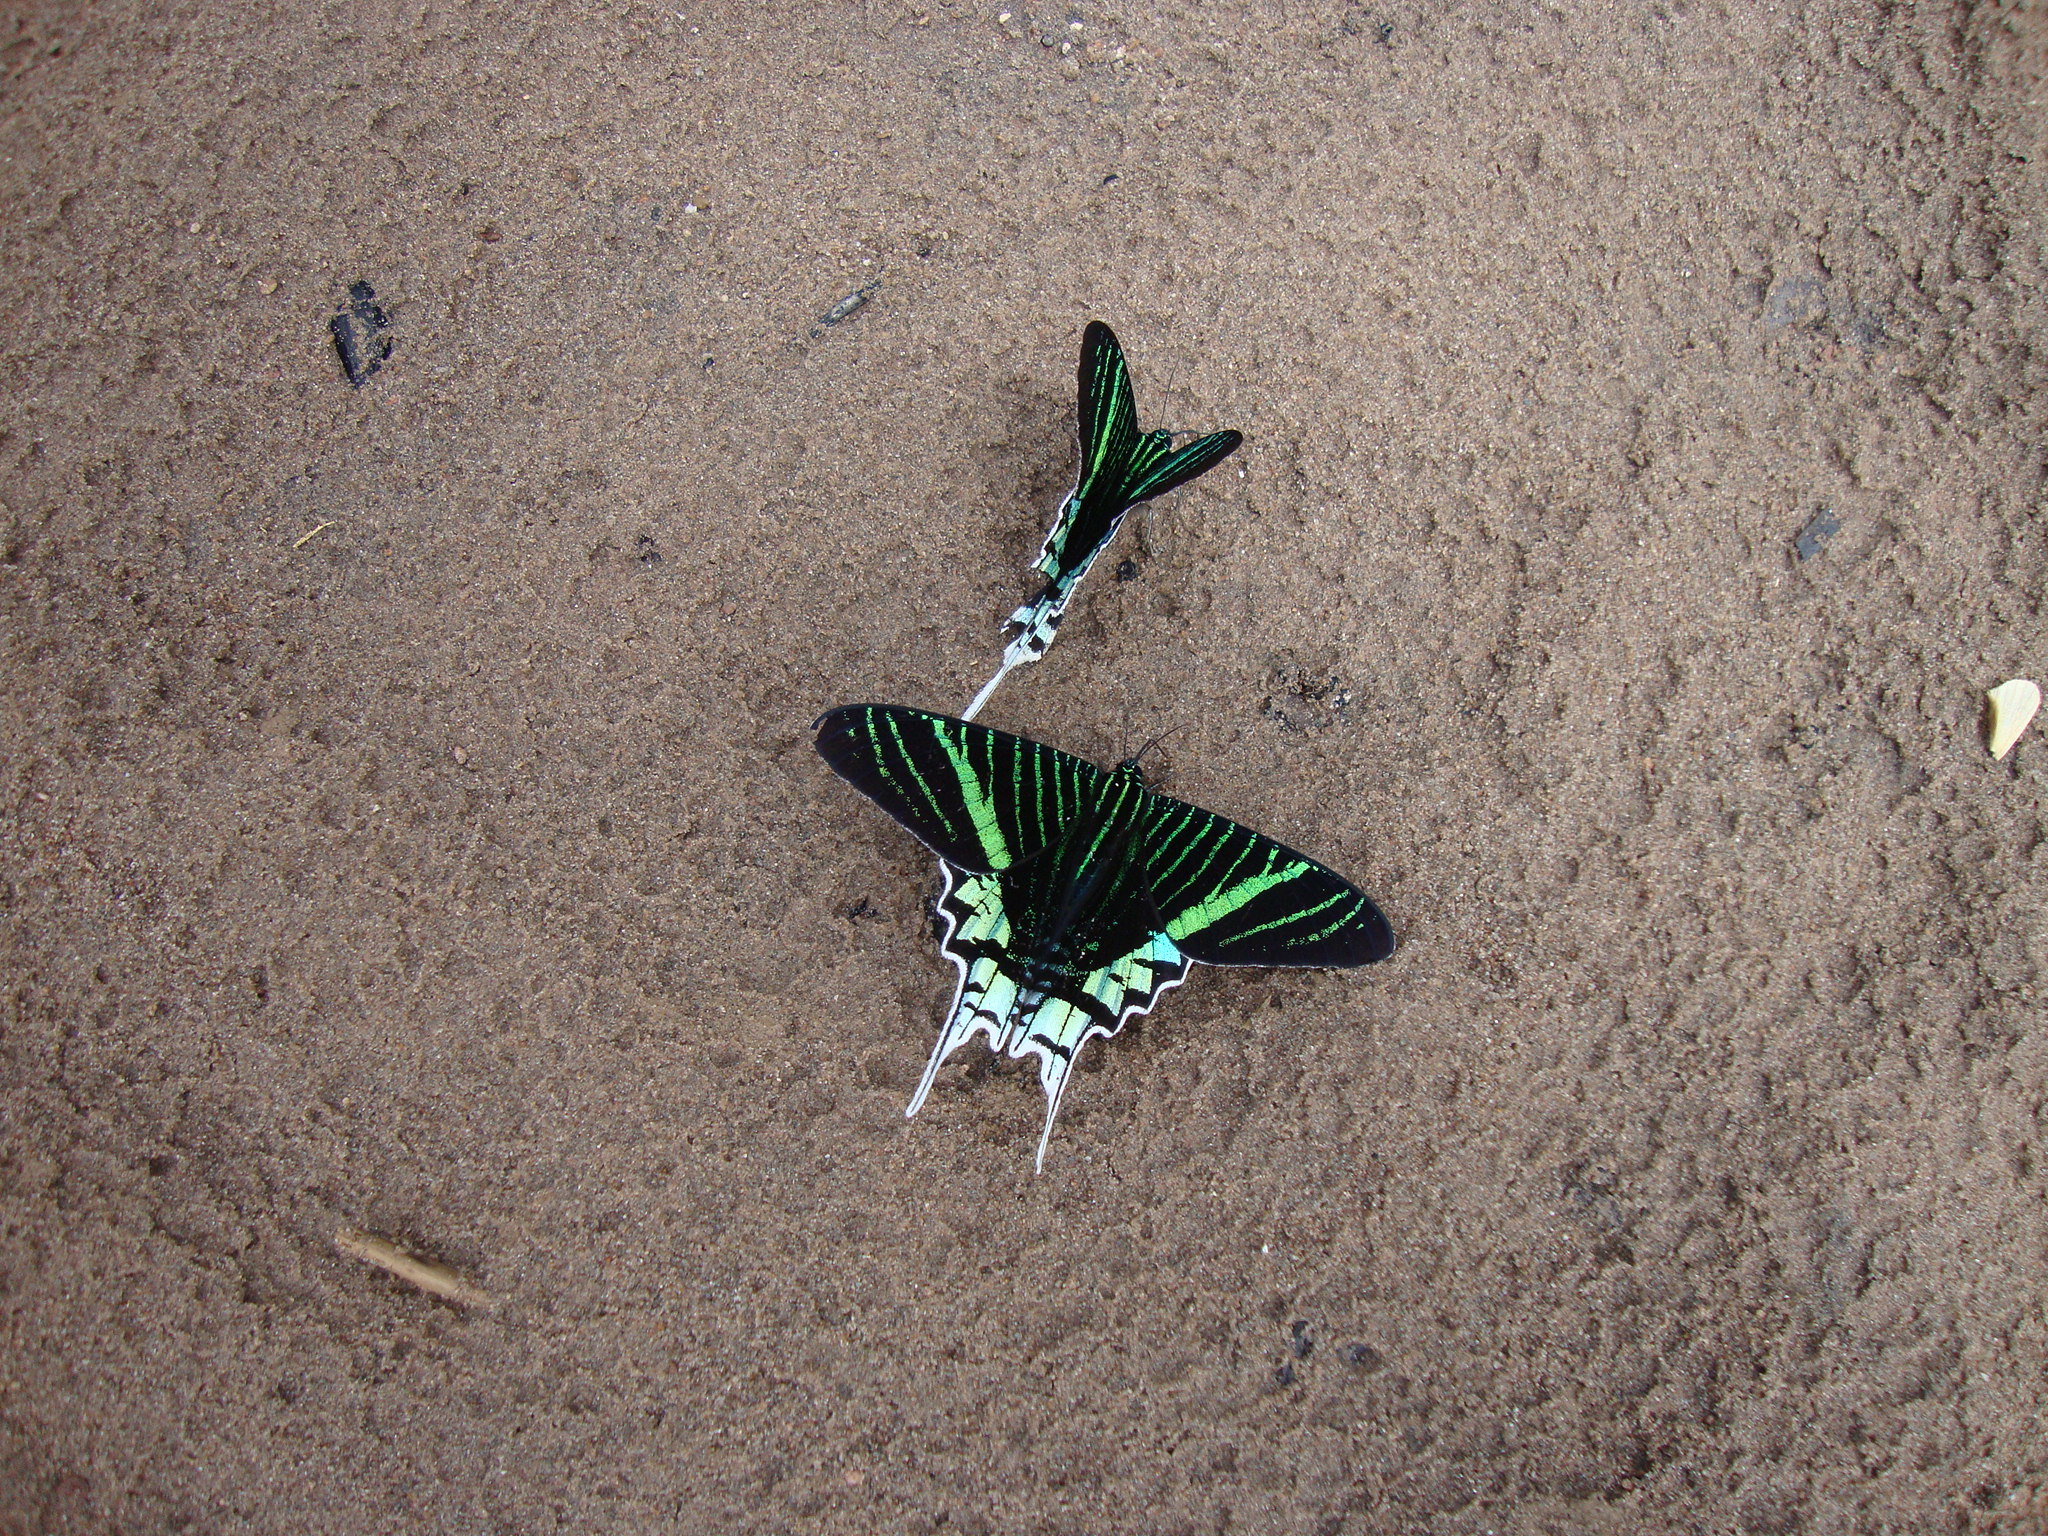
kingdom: Animalia
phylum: Arthropoda
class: Insecta
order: Lepidoptera
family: Uraniidae
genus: Urania
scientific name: Urania leilus
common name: Peacock moth
